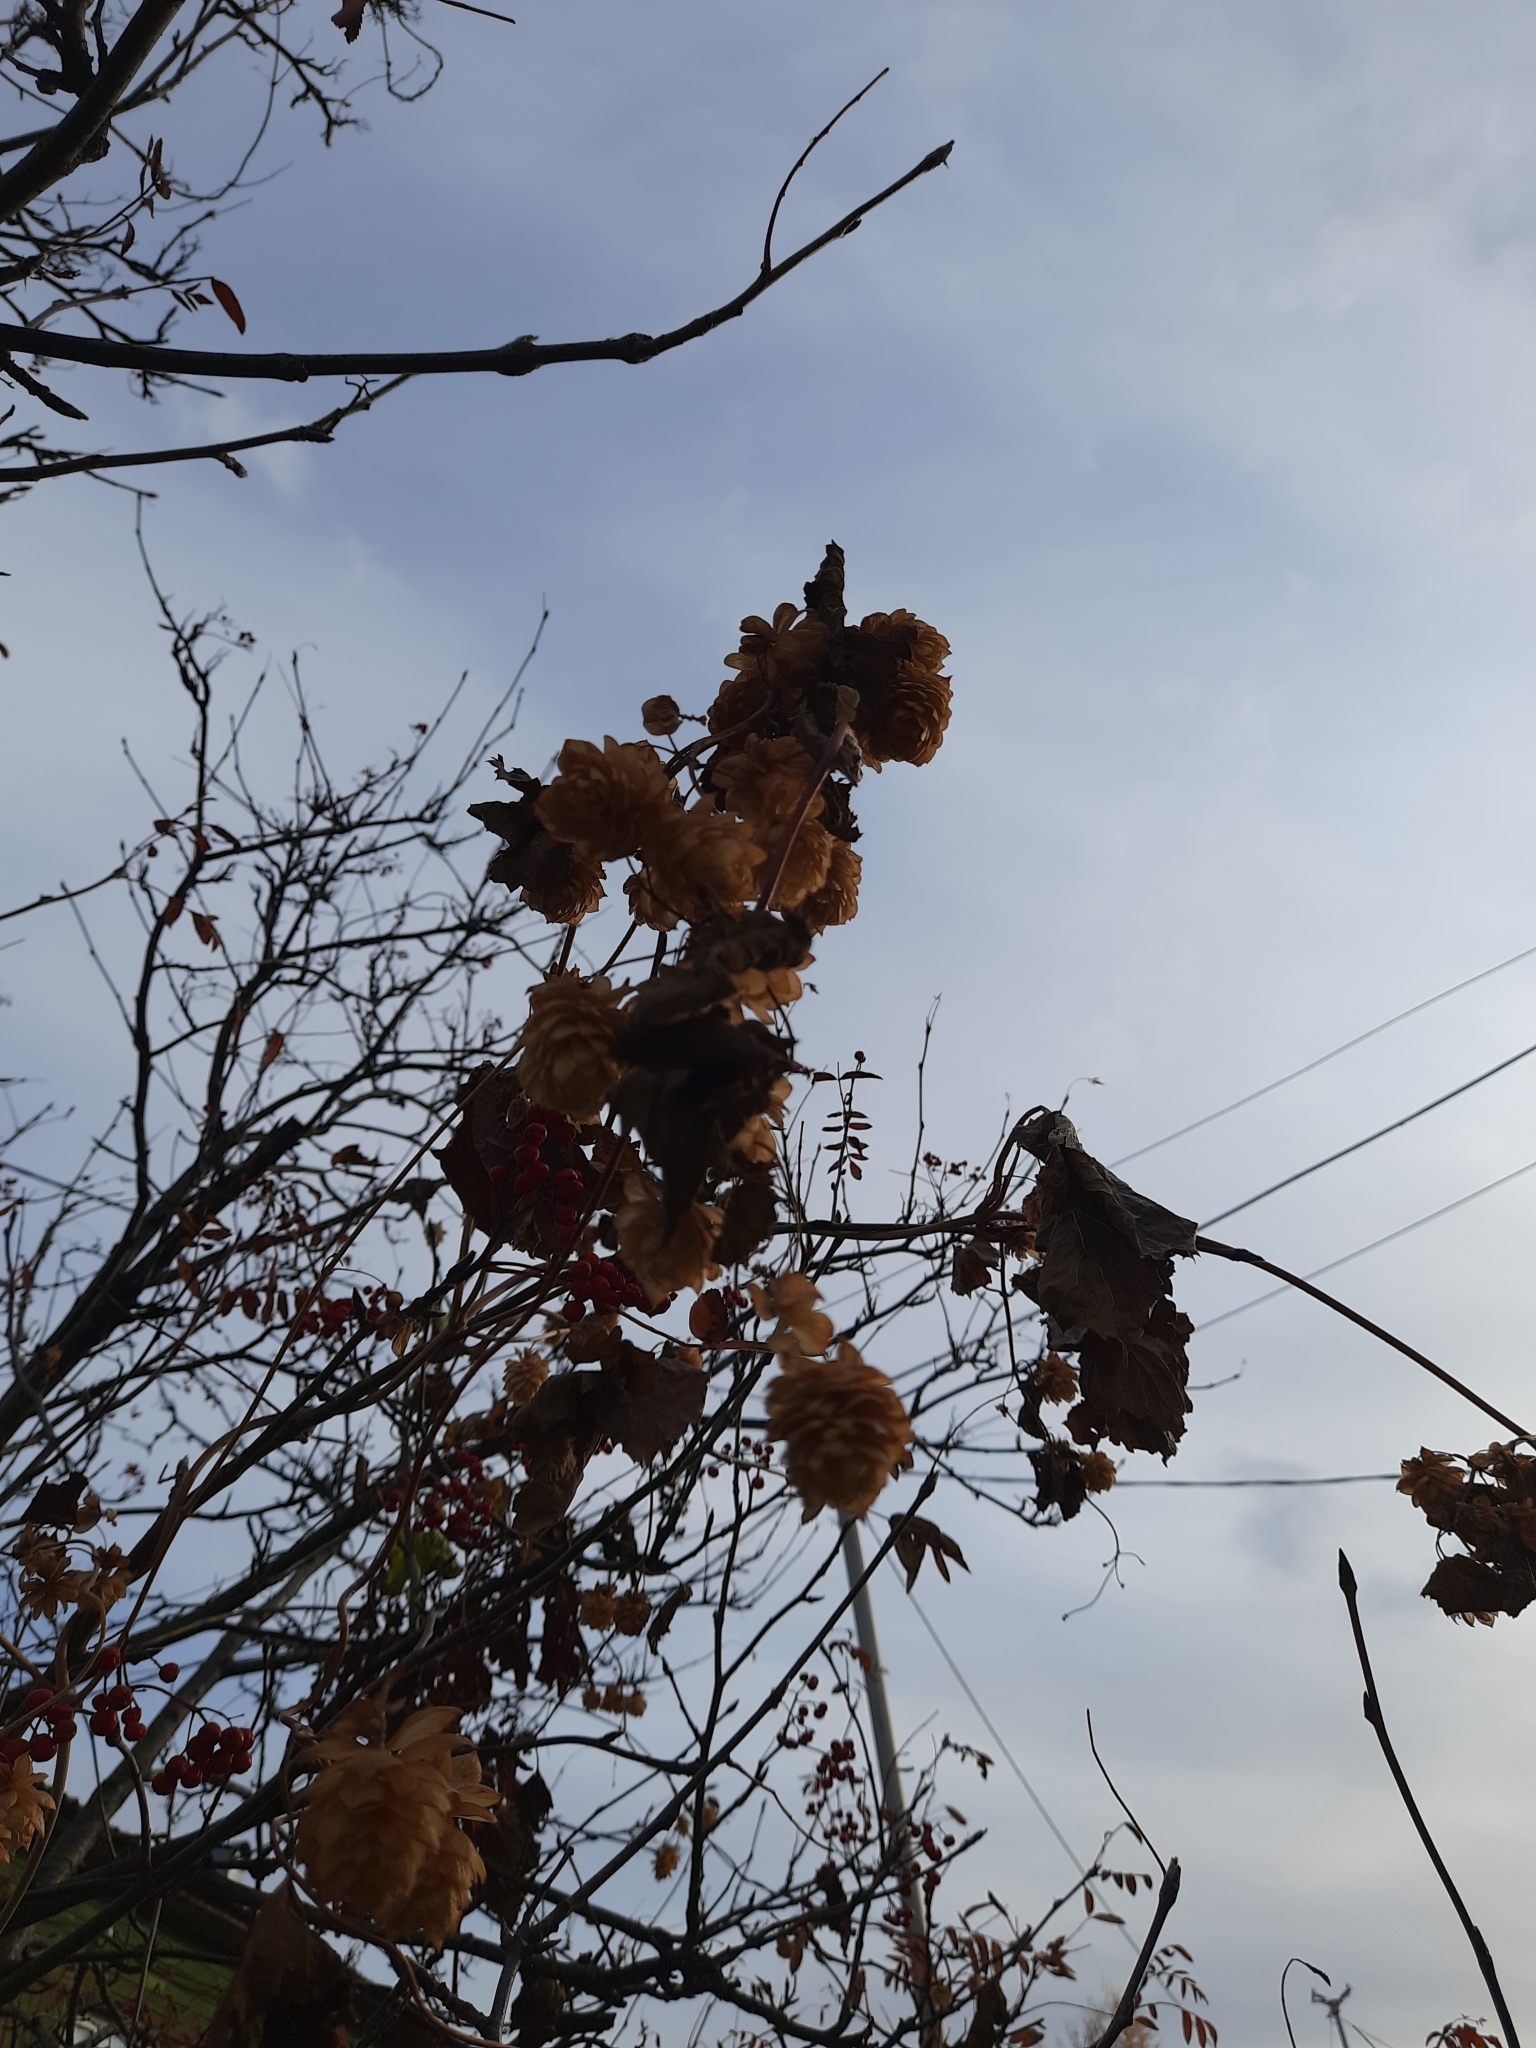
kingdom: Plantae
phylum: Tracheophyta
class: Magnoliopsida
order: Rosales
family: Cannabaceae
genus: Humulus
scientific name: Humulus lupulus
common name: Hop
